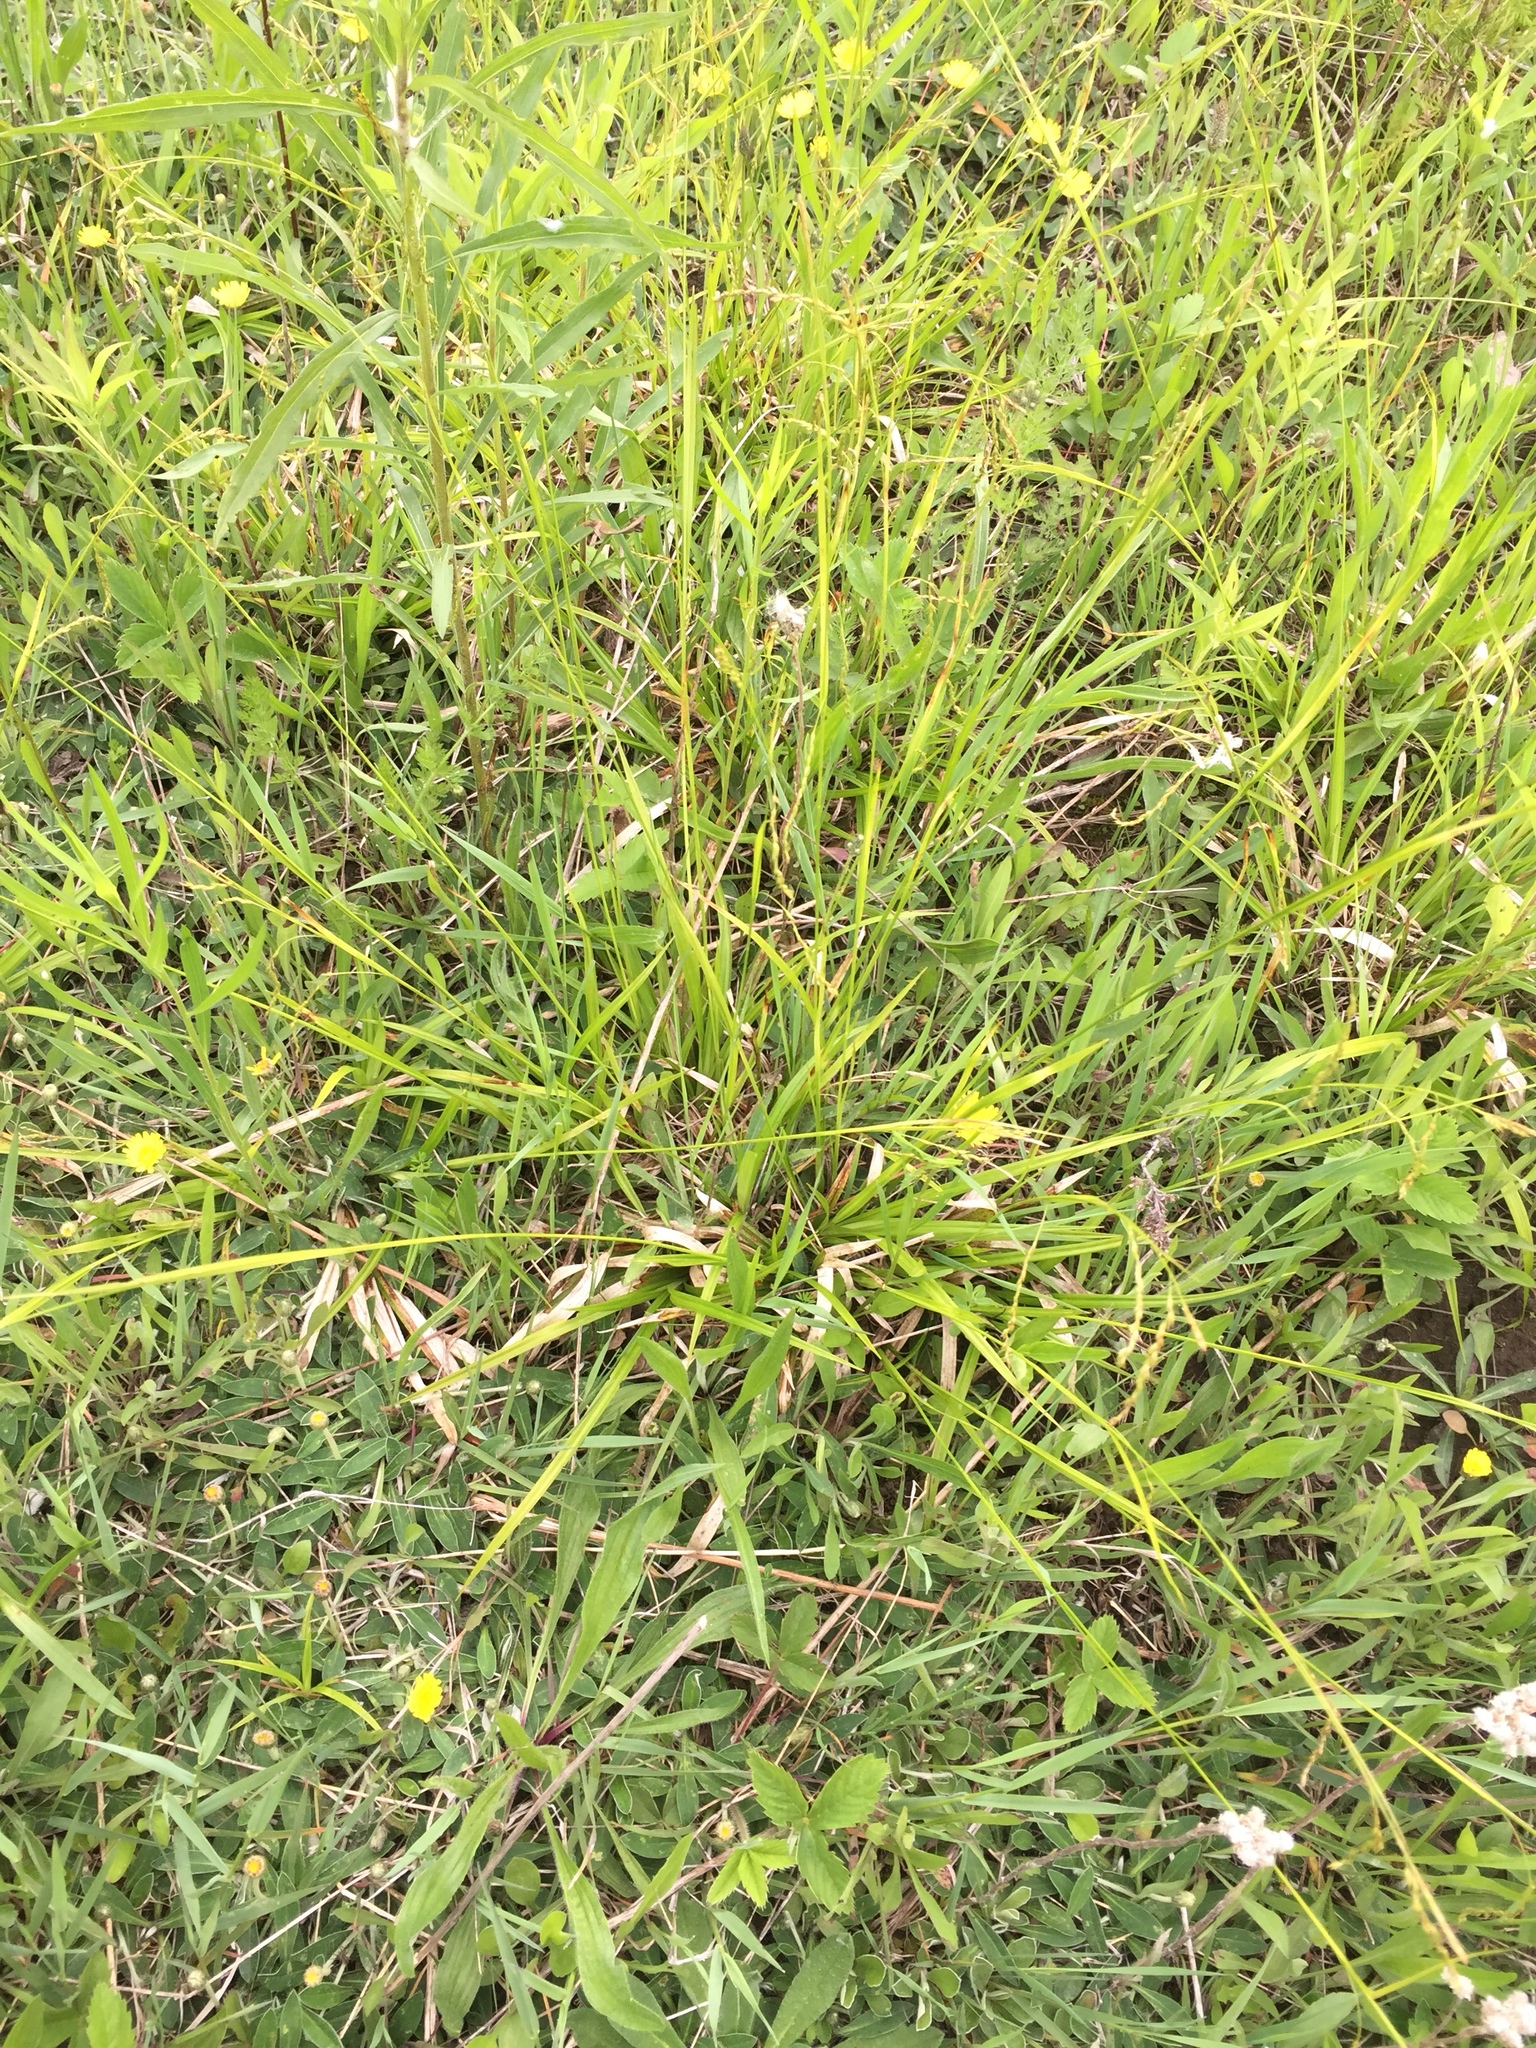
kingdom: Plantae
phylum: Tracheophyta
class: Liliopsida
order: Poales
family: Cyperaceae
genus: Carex
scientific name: Carex arctata
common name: Black sedge
